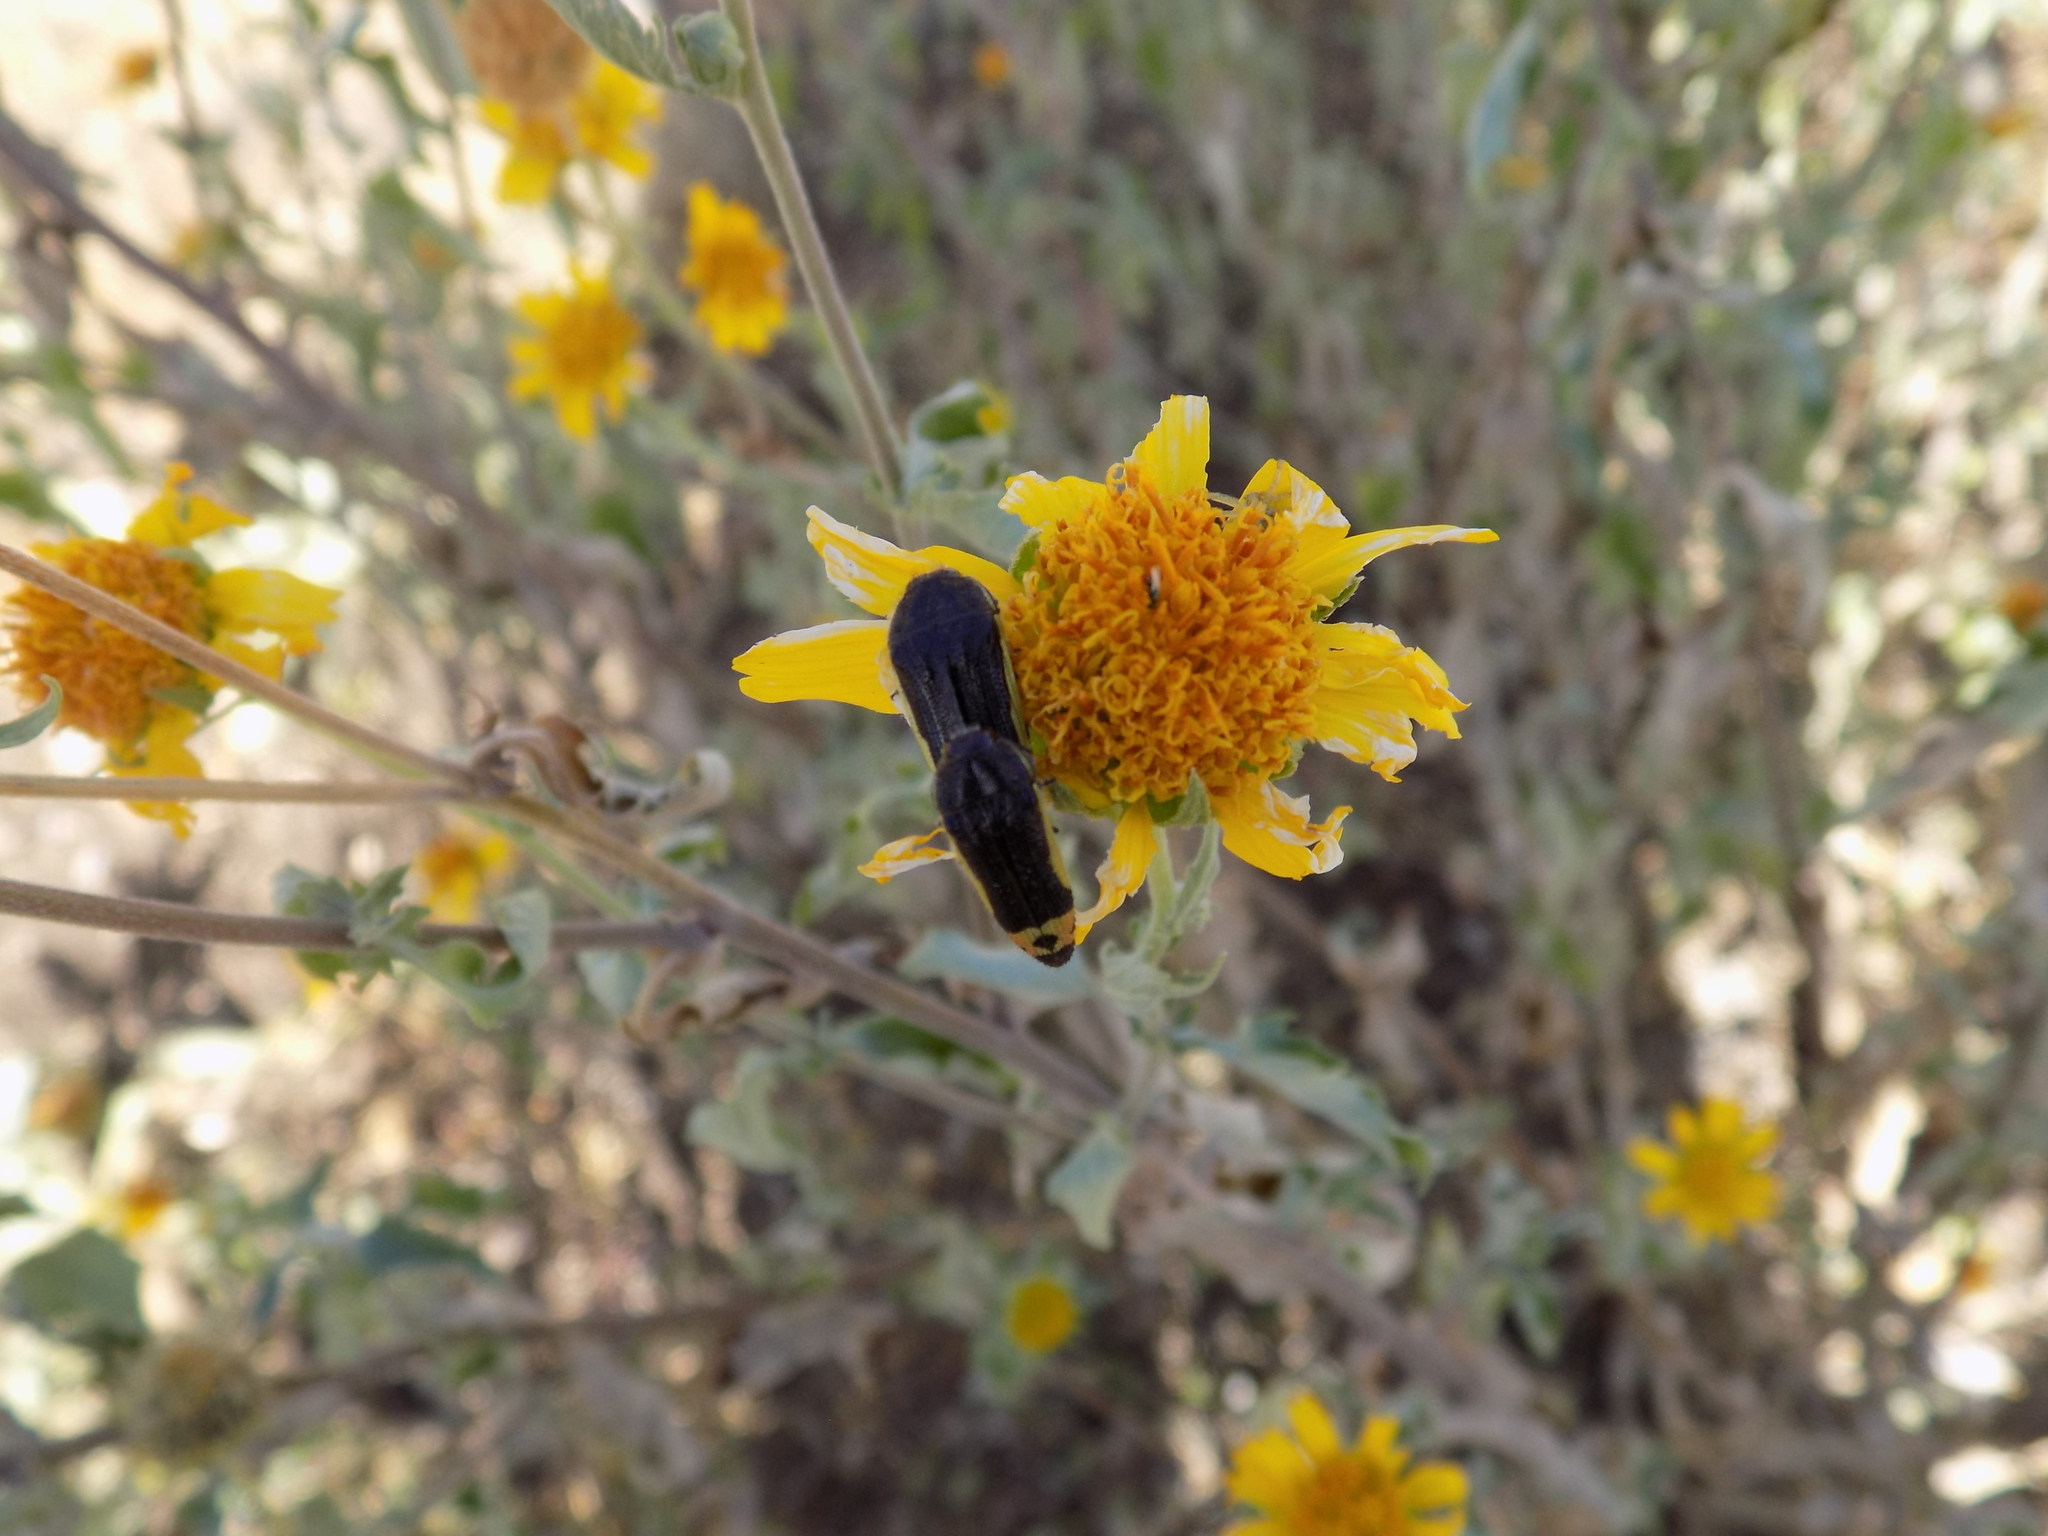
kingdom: Animalia
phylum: Arthropoda
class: Insecta
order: Coleoptera
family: Buprestidae
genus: Acmaeodera
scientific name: Acmaeodera flavomarginata
